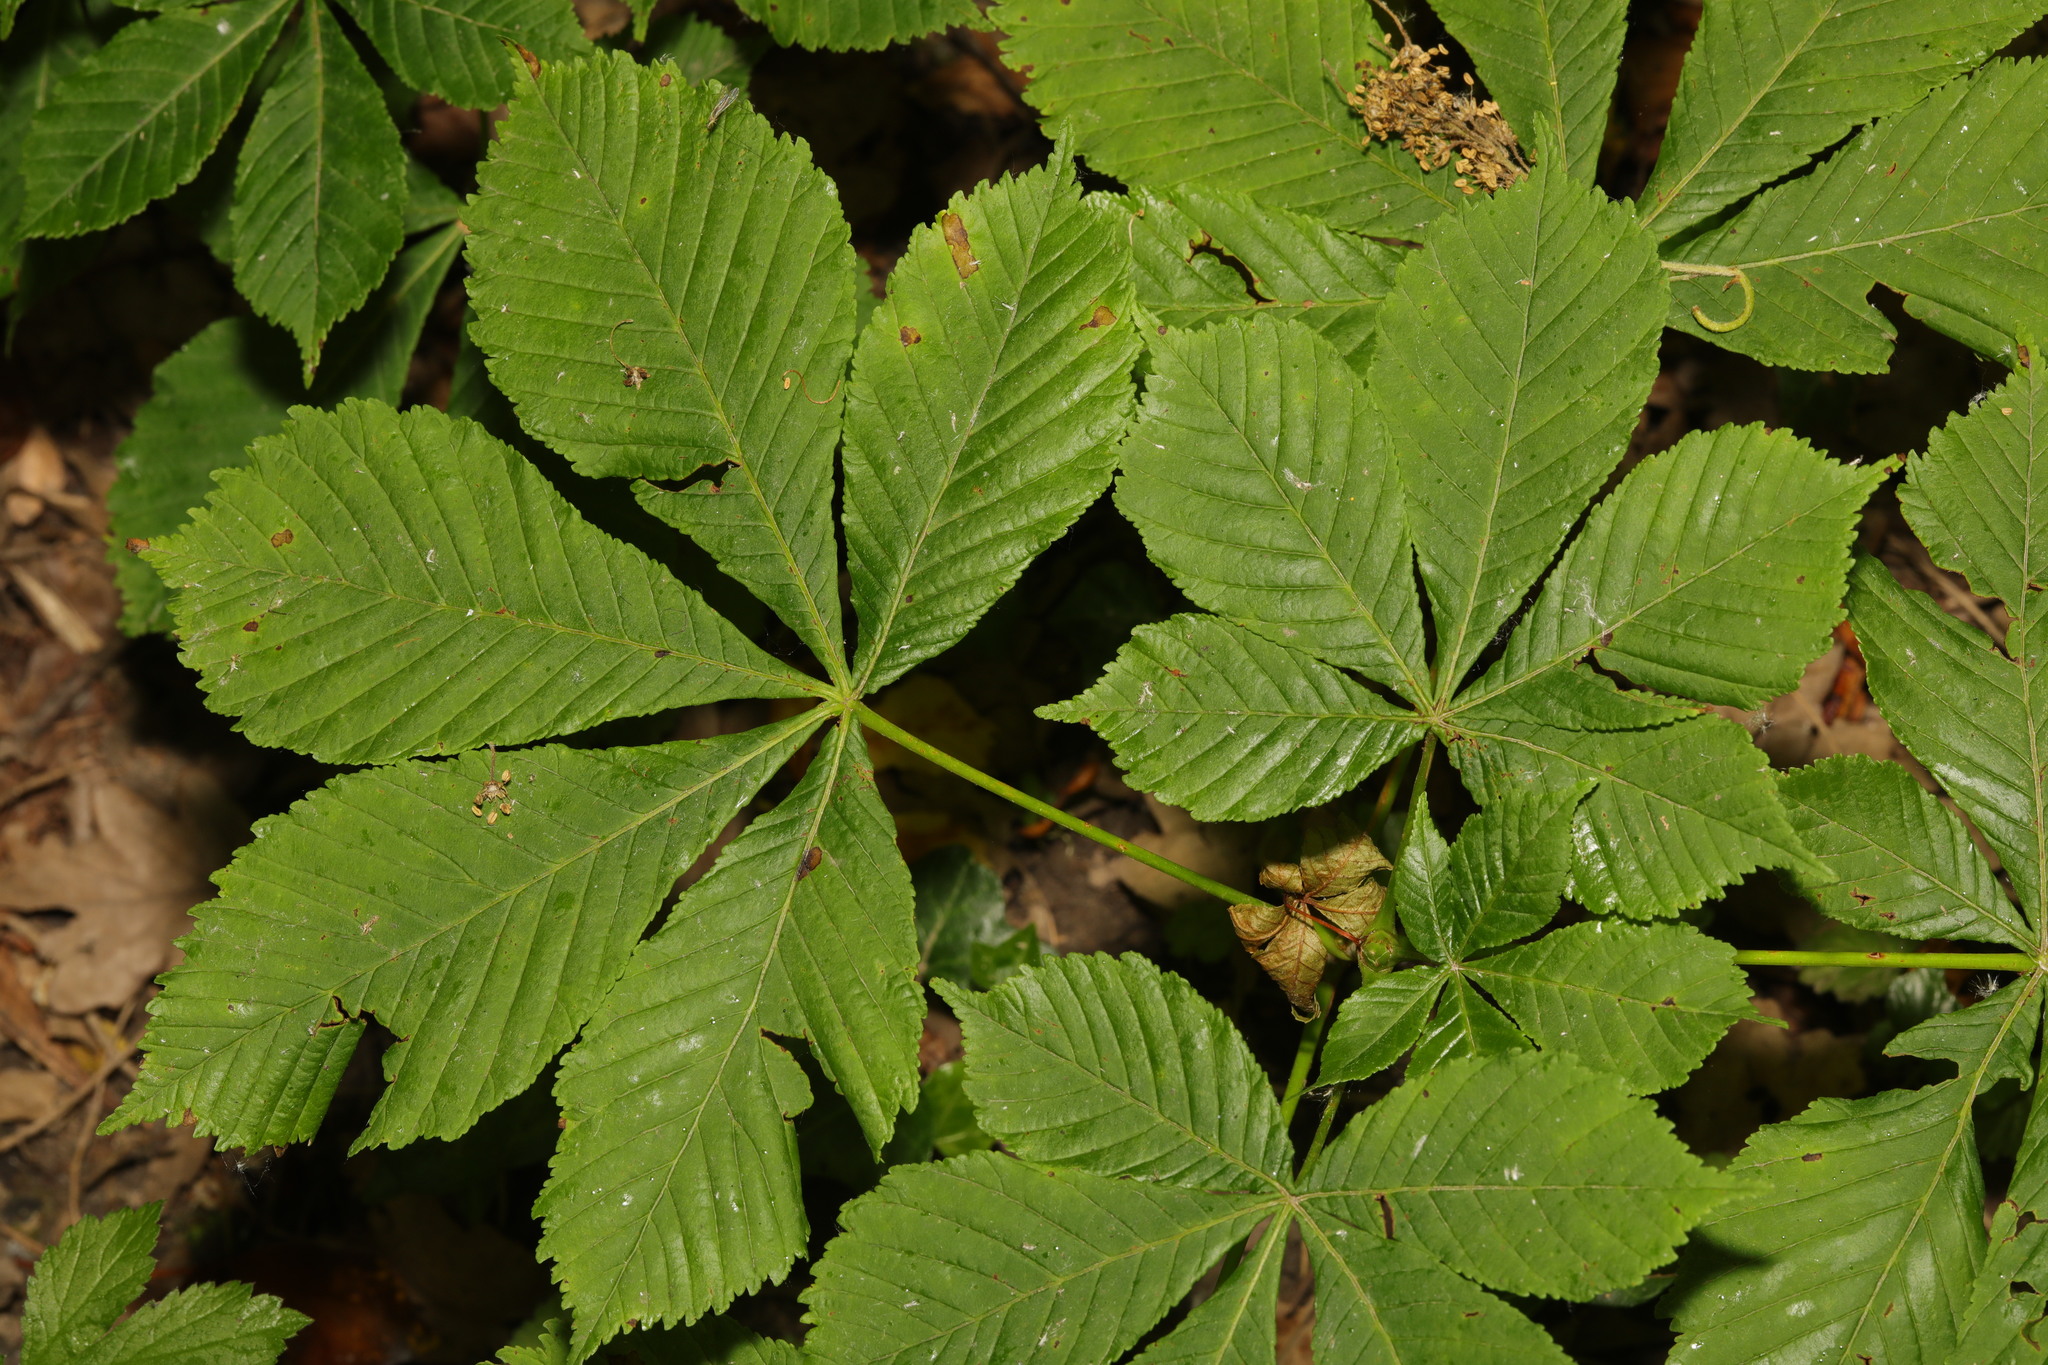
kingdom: Plantae
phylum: Tracheophyta
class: Magnoliopsida
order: Sapindales
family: Sapindaceae
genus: Aesculus
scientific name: Aesculus hippocastanum
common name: Horse-chestnut
